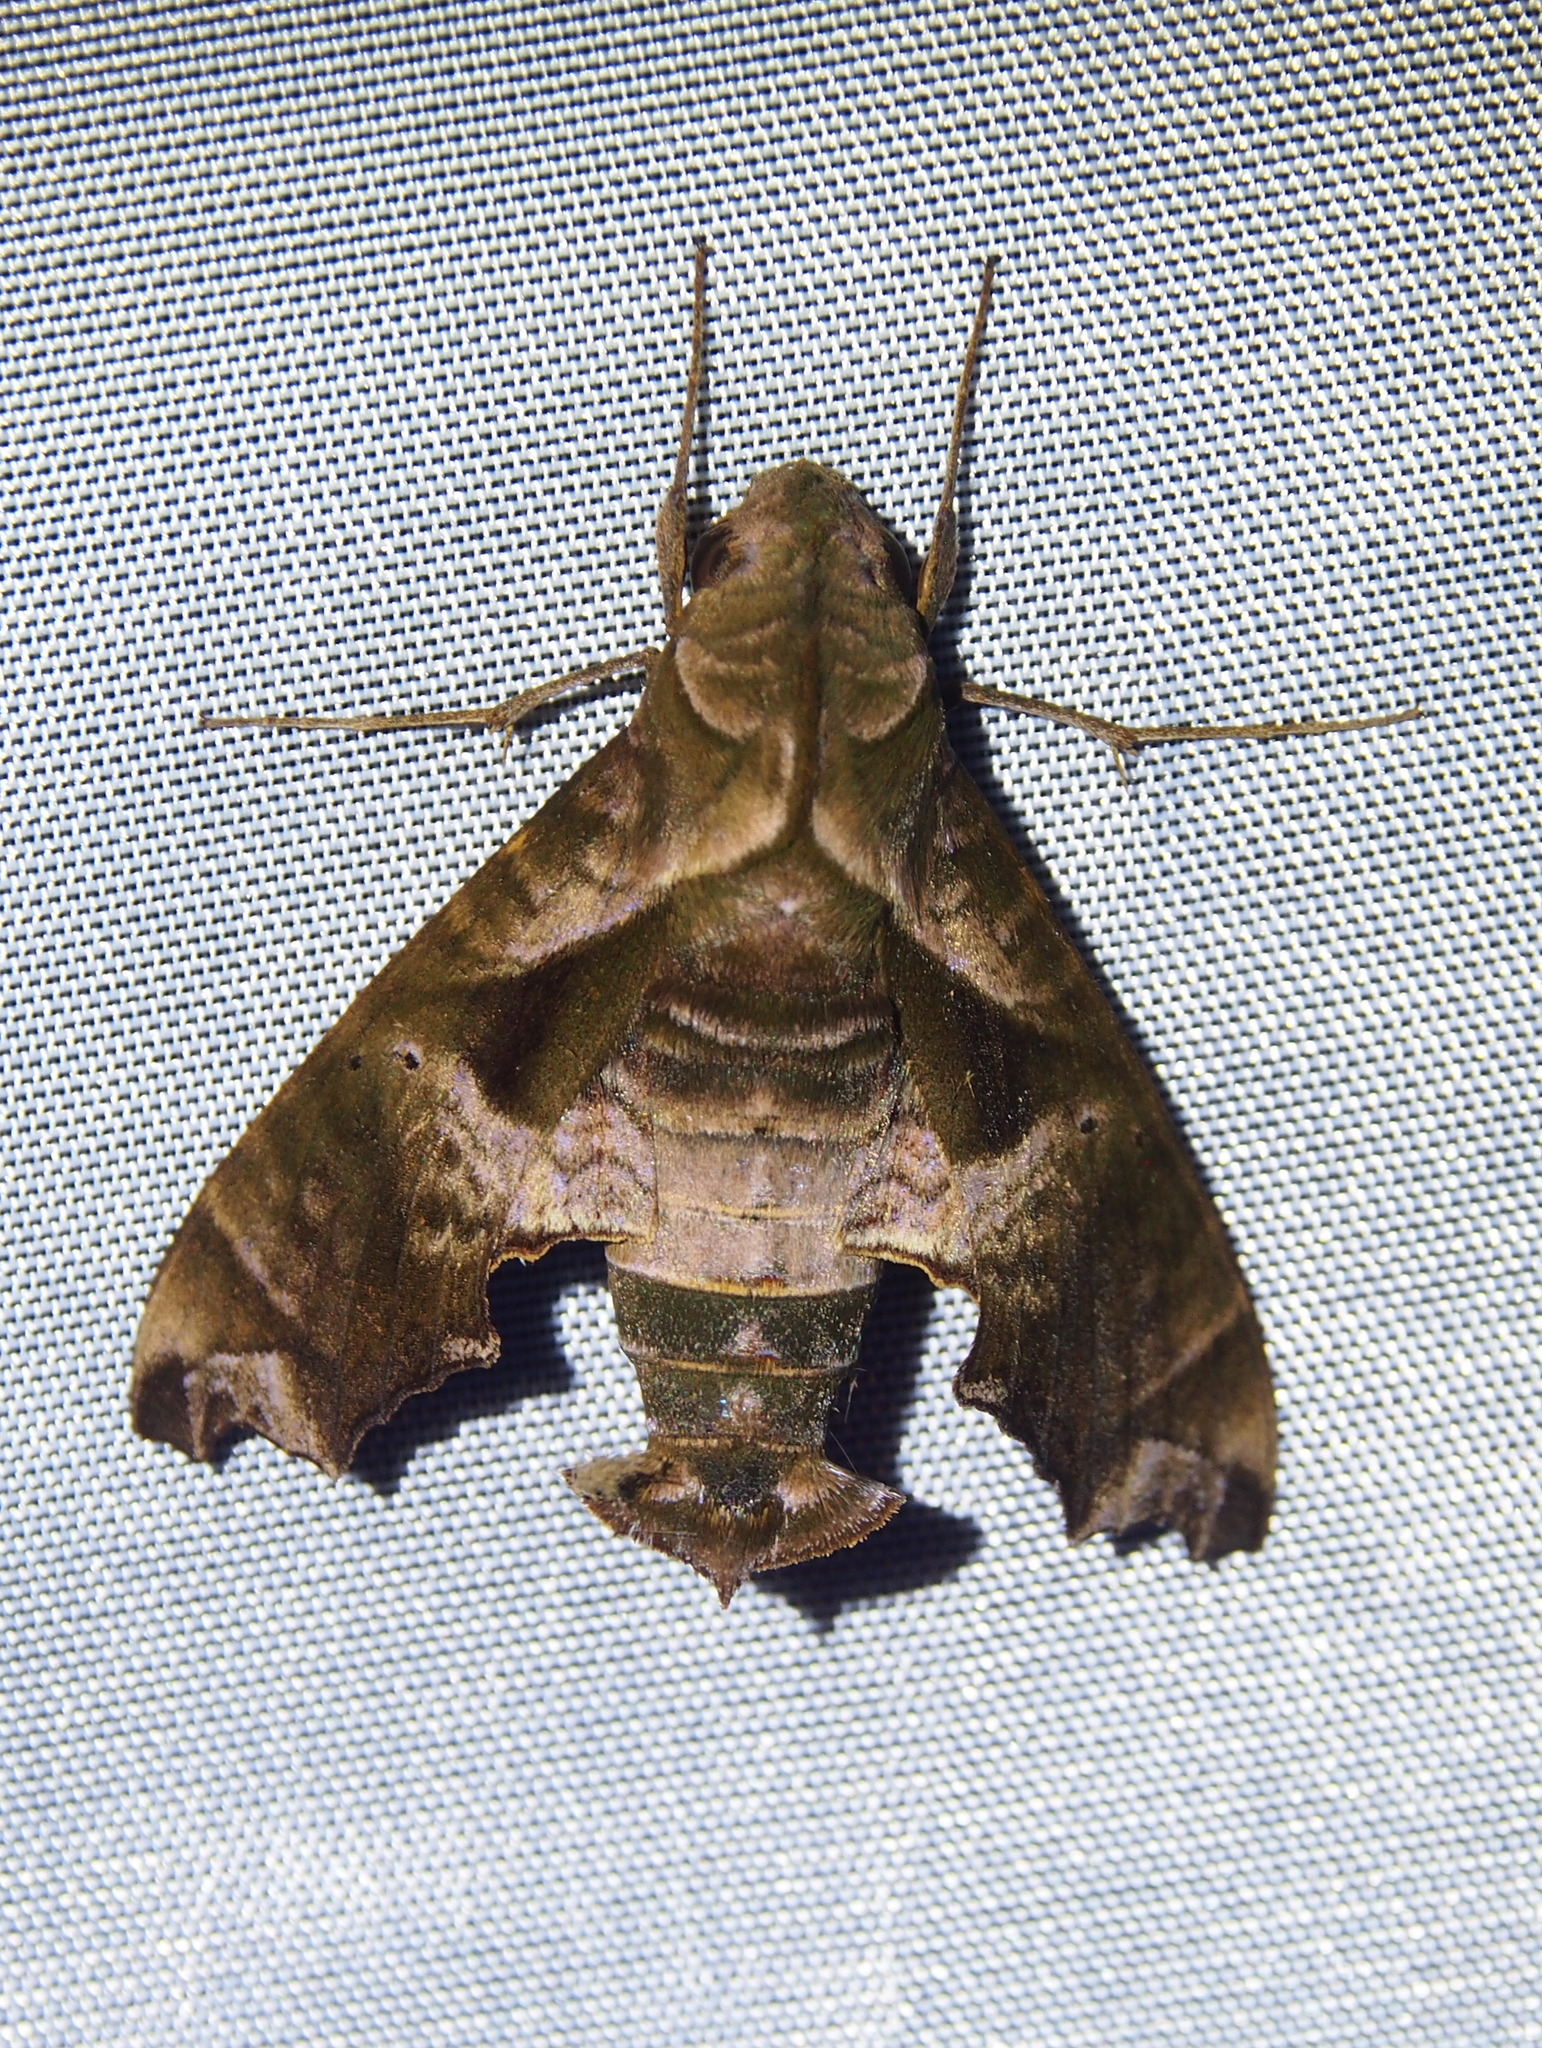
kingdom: Animalia
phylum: Arthropoda
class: Insecta
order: Lepidoptera
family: Sphingidae
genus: Nyceryx
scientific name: Nyceryx eximia
